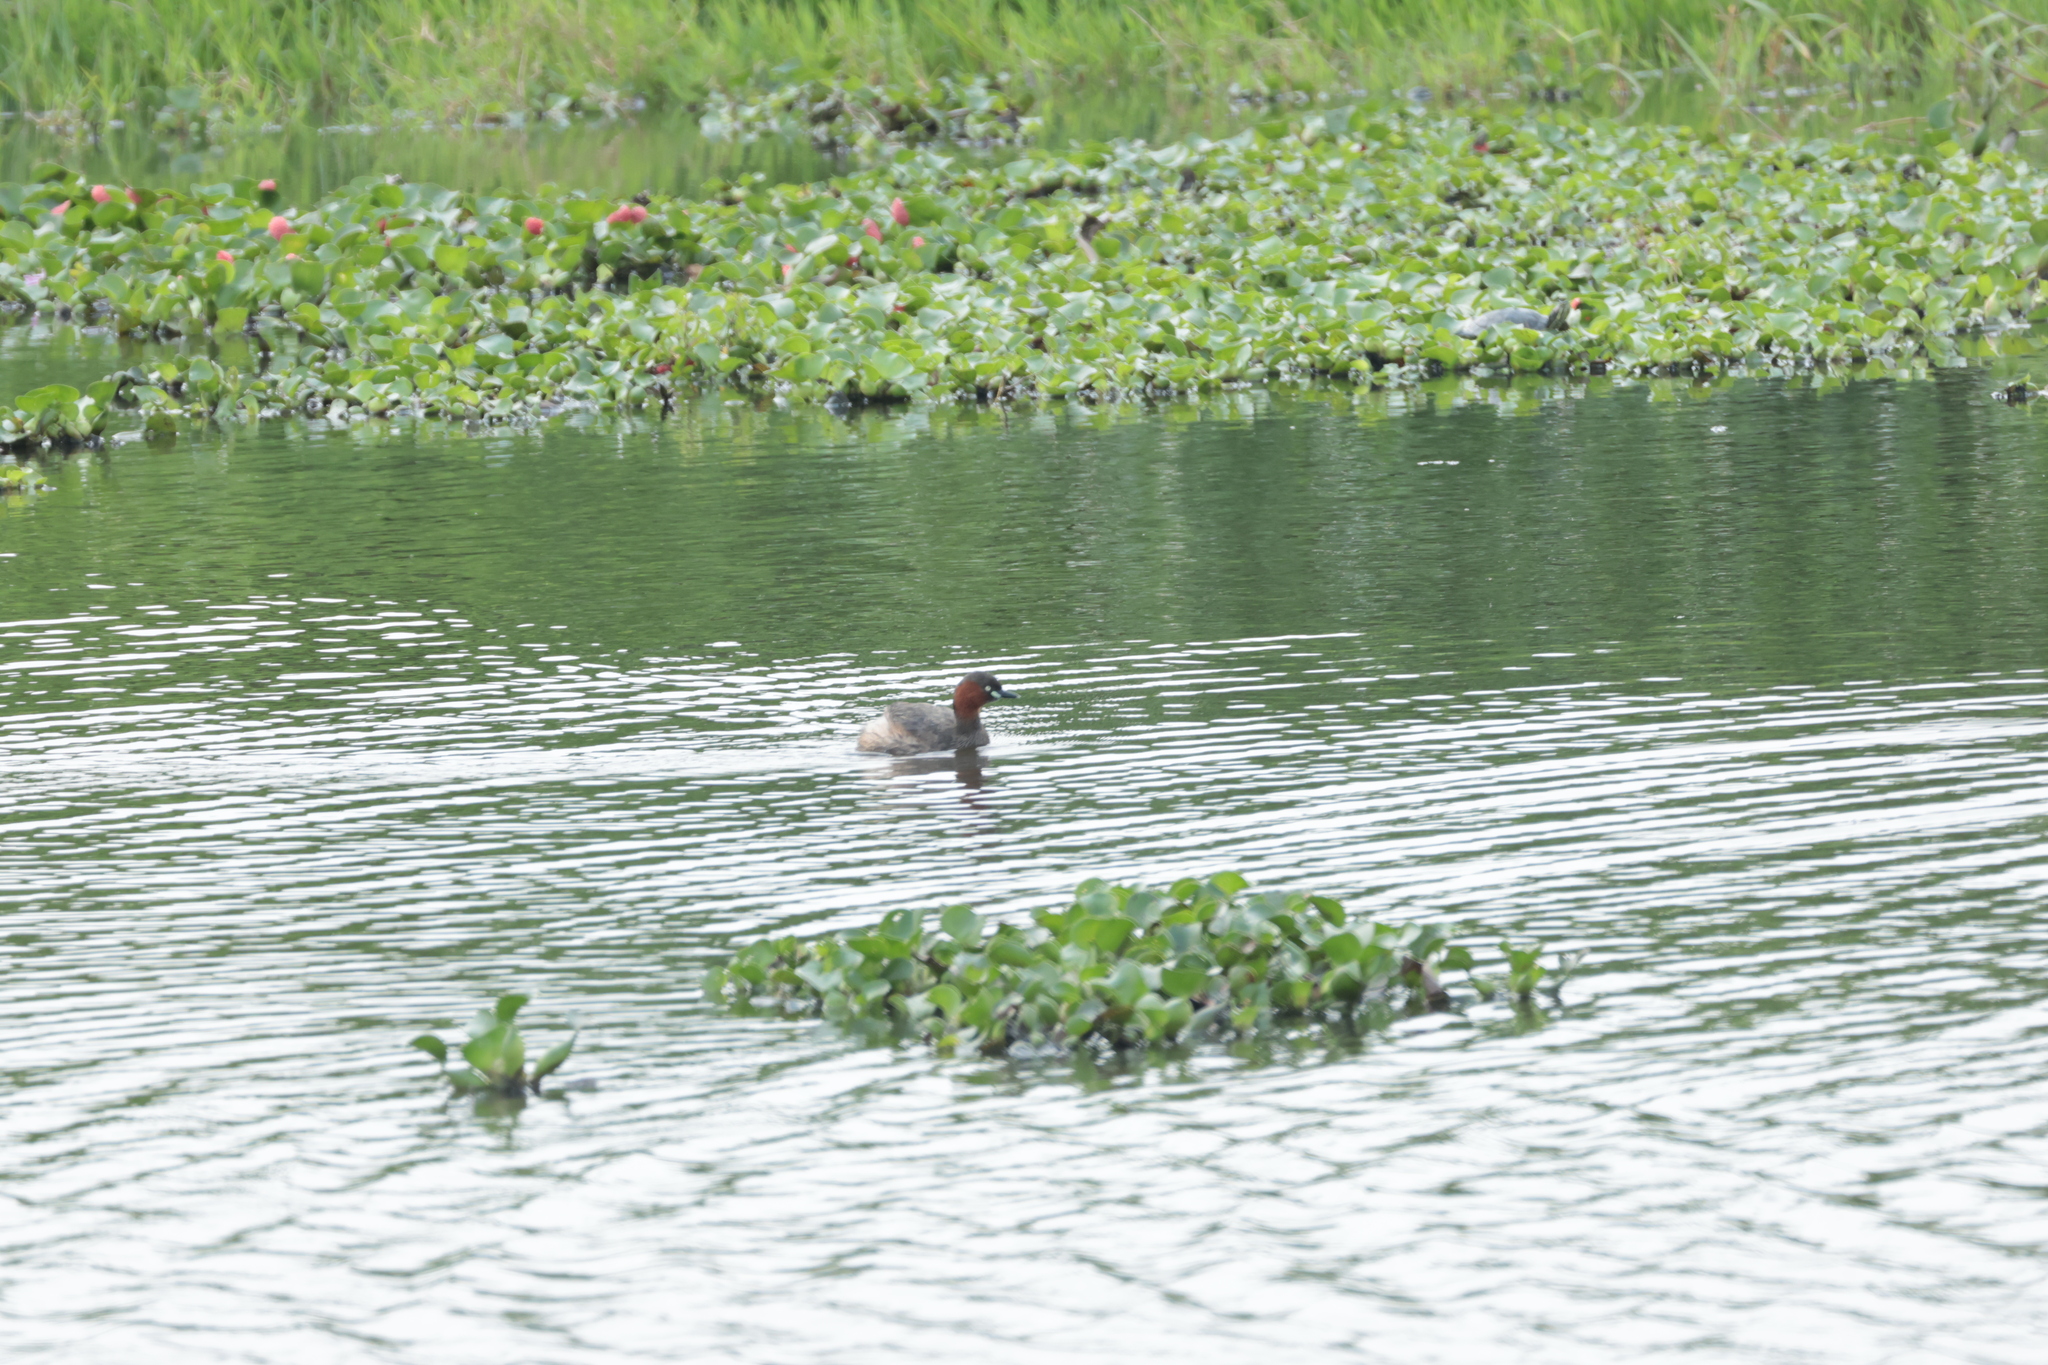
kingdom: Animalia
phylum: Chordata
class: Aves
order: Podicipediformes
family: Podicipedidae
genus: Tachybaptus
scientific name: Tachybaptus ruficollis
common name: Little grebe
